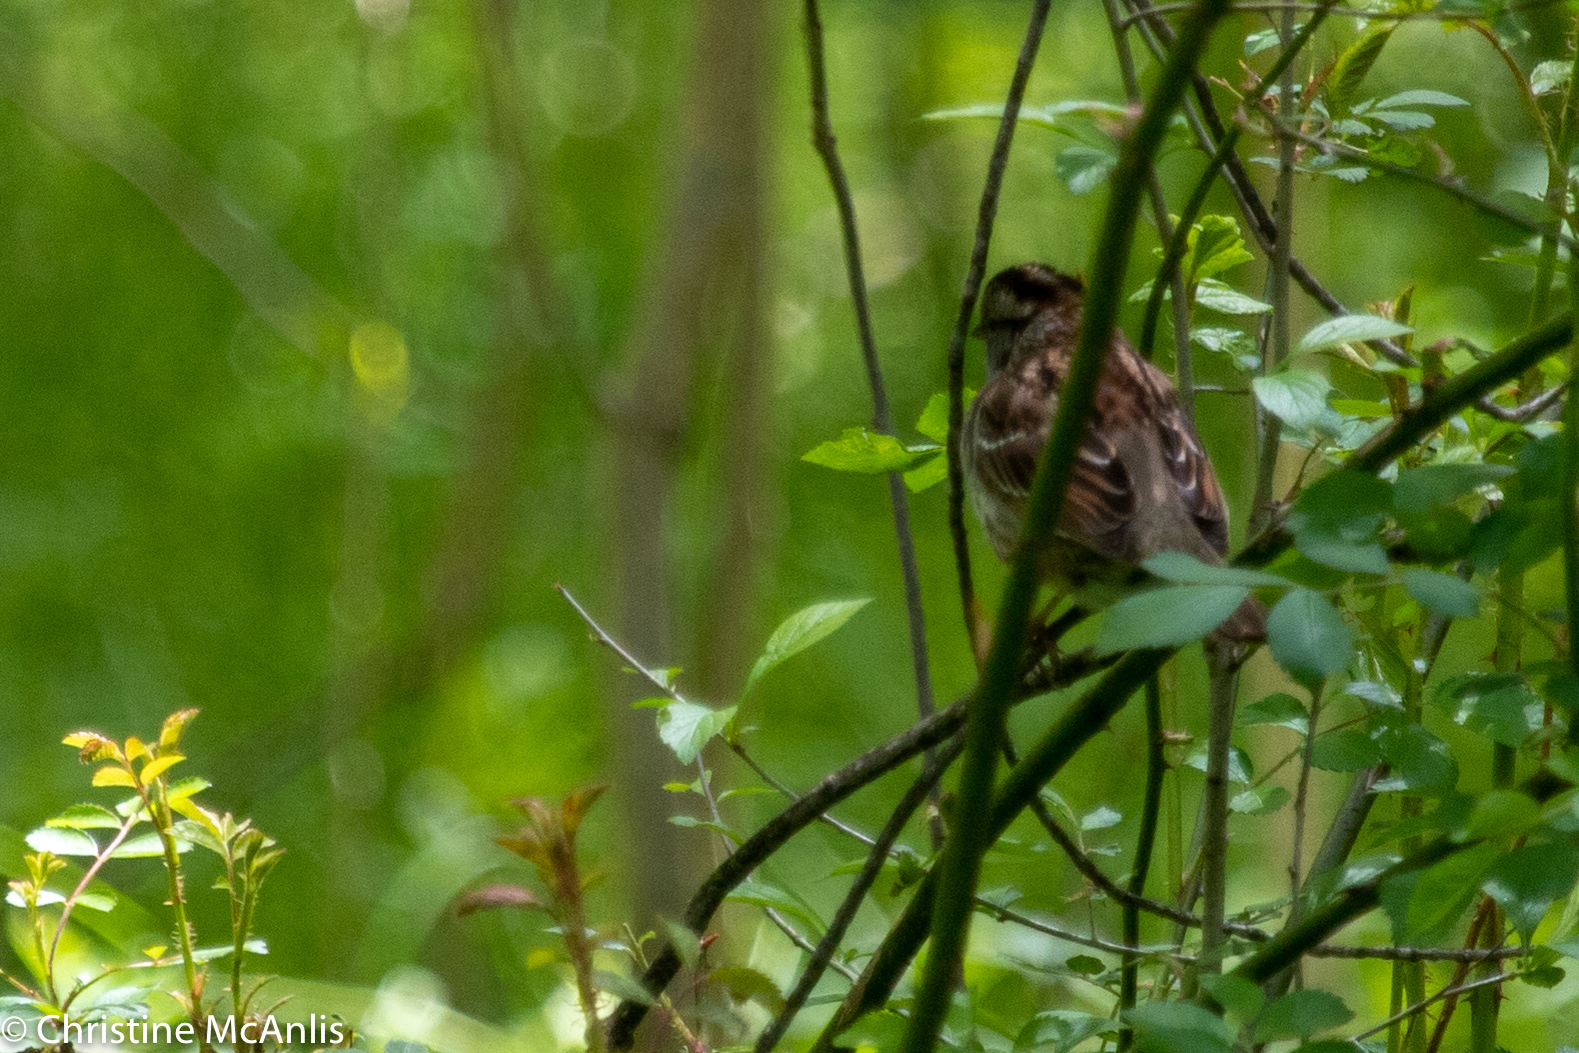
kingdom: Animalia
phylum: Chordata
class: Aves
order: Passeriformes
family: Passerellidae
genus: Zonotrichia
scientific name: Zonotrichia albicollis
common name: White-throated sparrow
